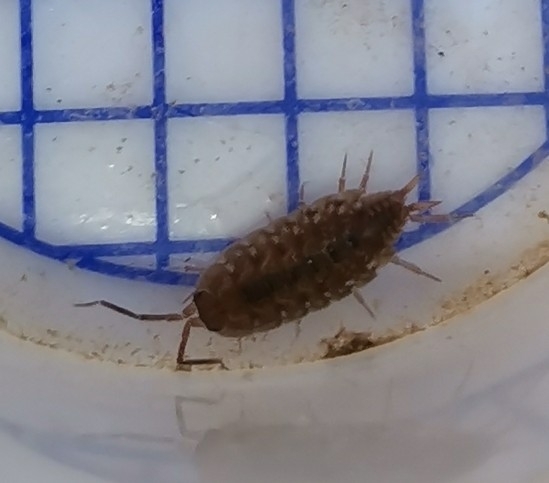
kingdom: Animalia
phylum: Arthropoda
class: Malacostraca
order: Isopoda
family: Agnaridae
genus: Orthometopon
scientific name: Orthometopon planum
